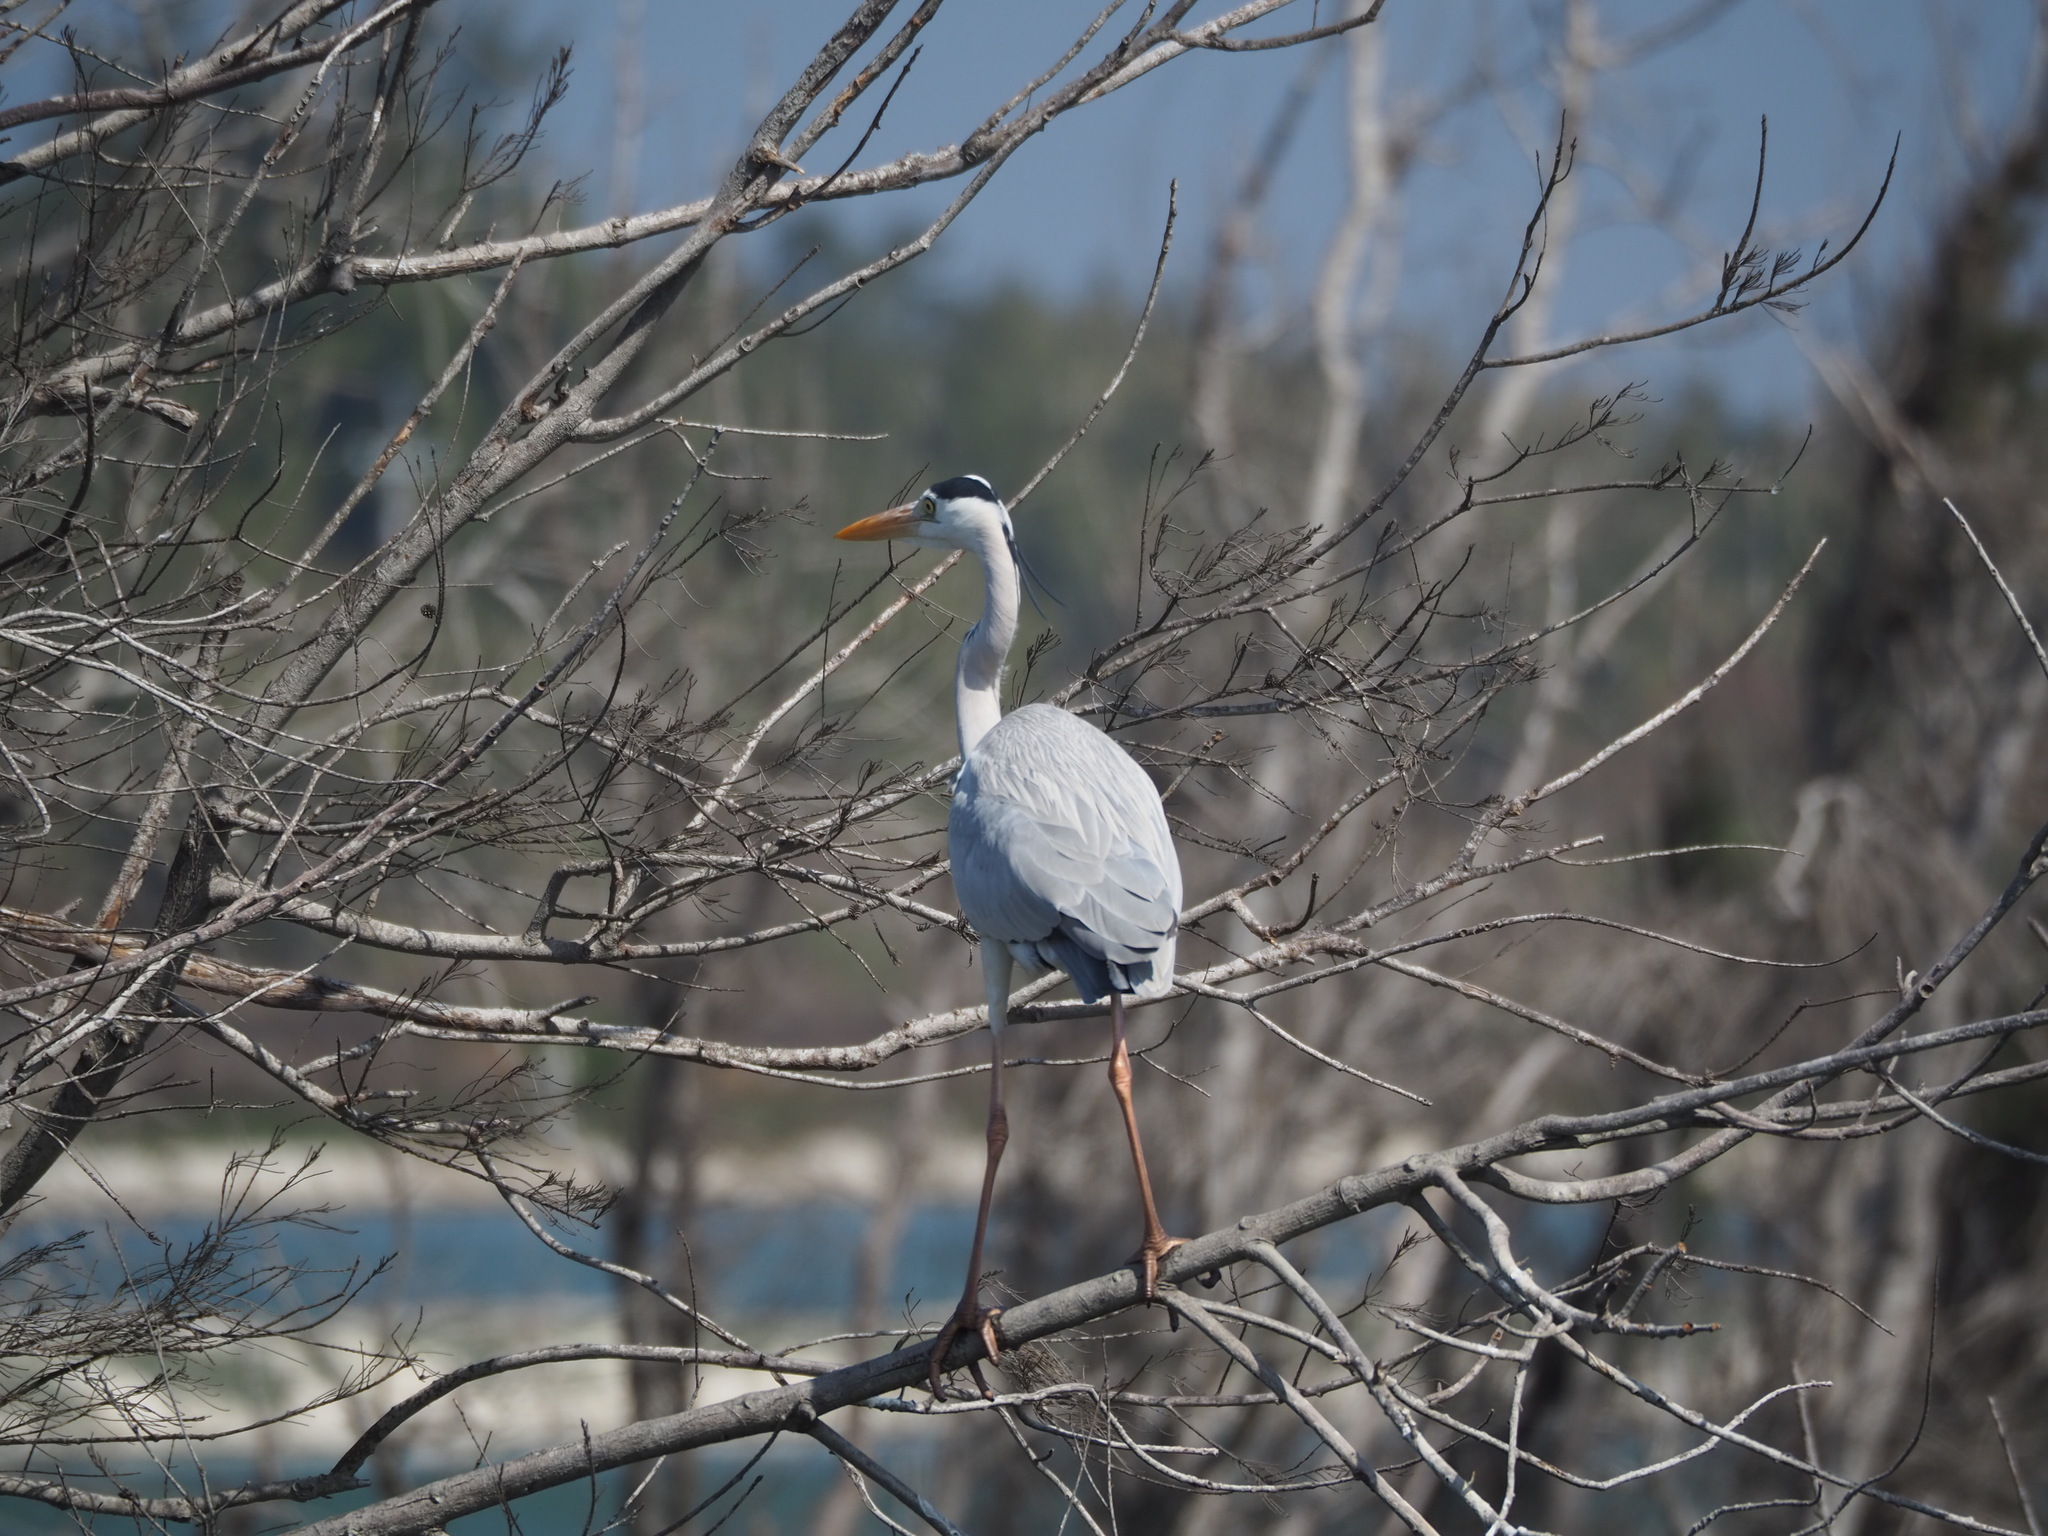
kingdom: Animalia
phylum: Chordata
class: Aves
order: Pelecaniformes
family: Ardeidae
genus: Ardea
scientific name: Ardea cinerea
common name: Grey heron
